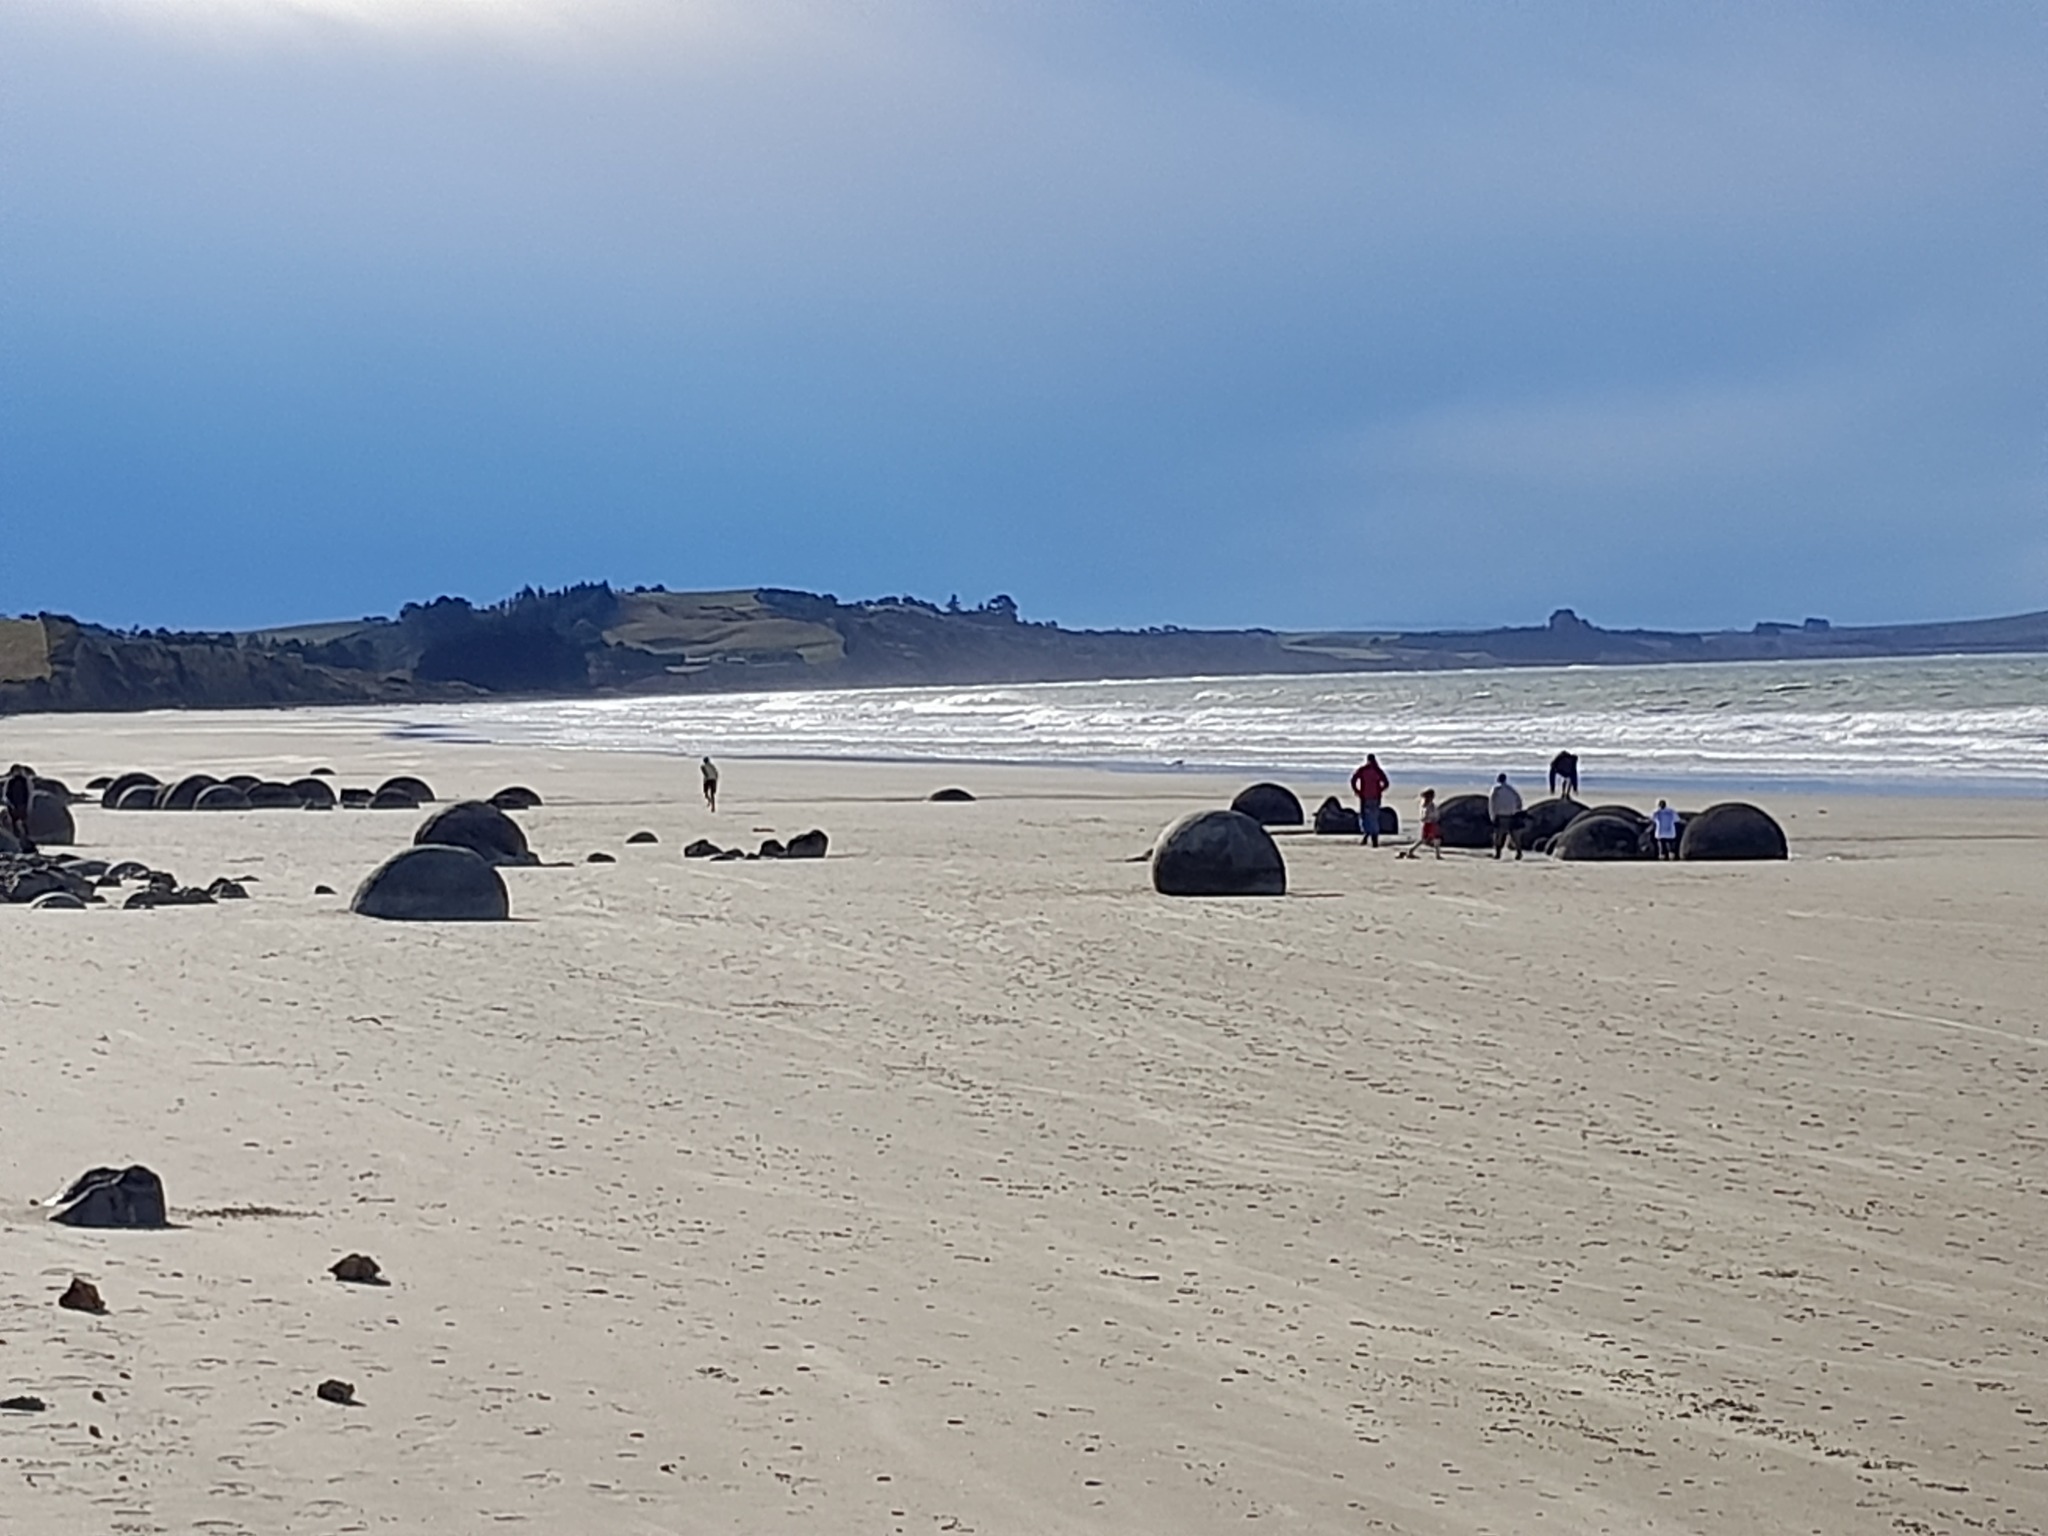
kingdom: Plantae
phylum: Tracheophyta
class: Magnoliopsida
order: Lamiales
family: Scrophulariaceae
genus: Myoporum
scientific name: Myoporum insulare
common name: Common boobialla
